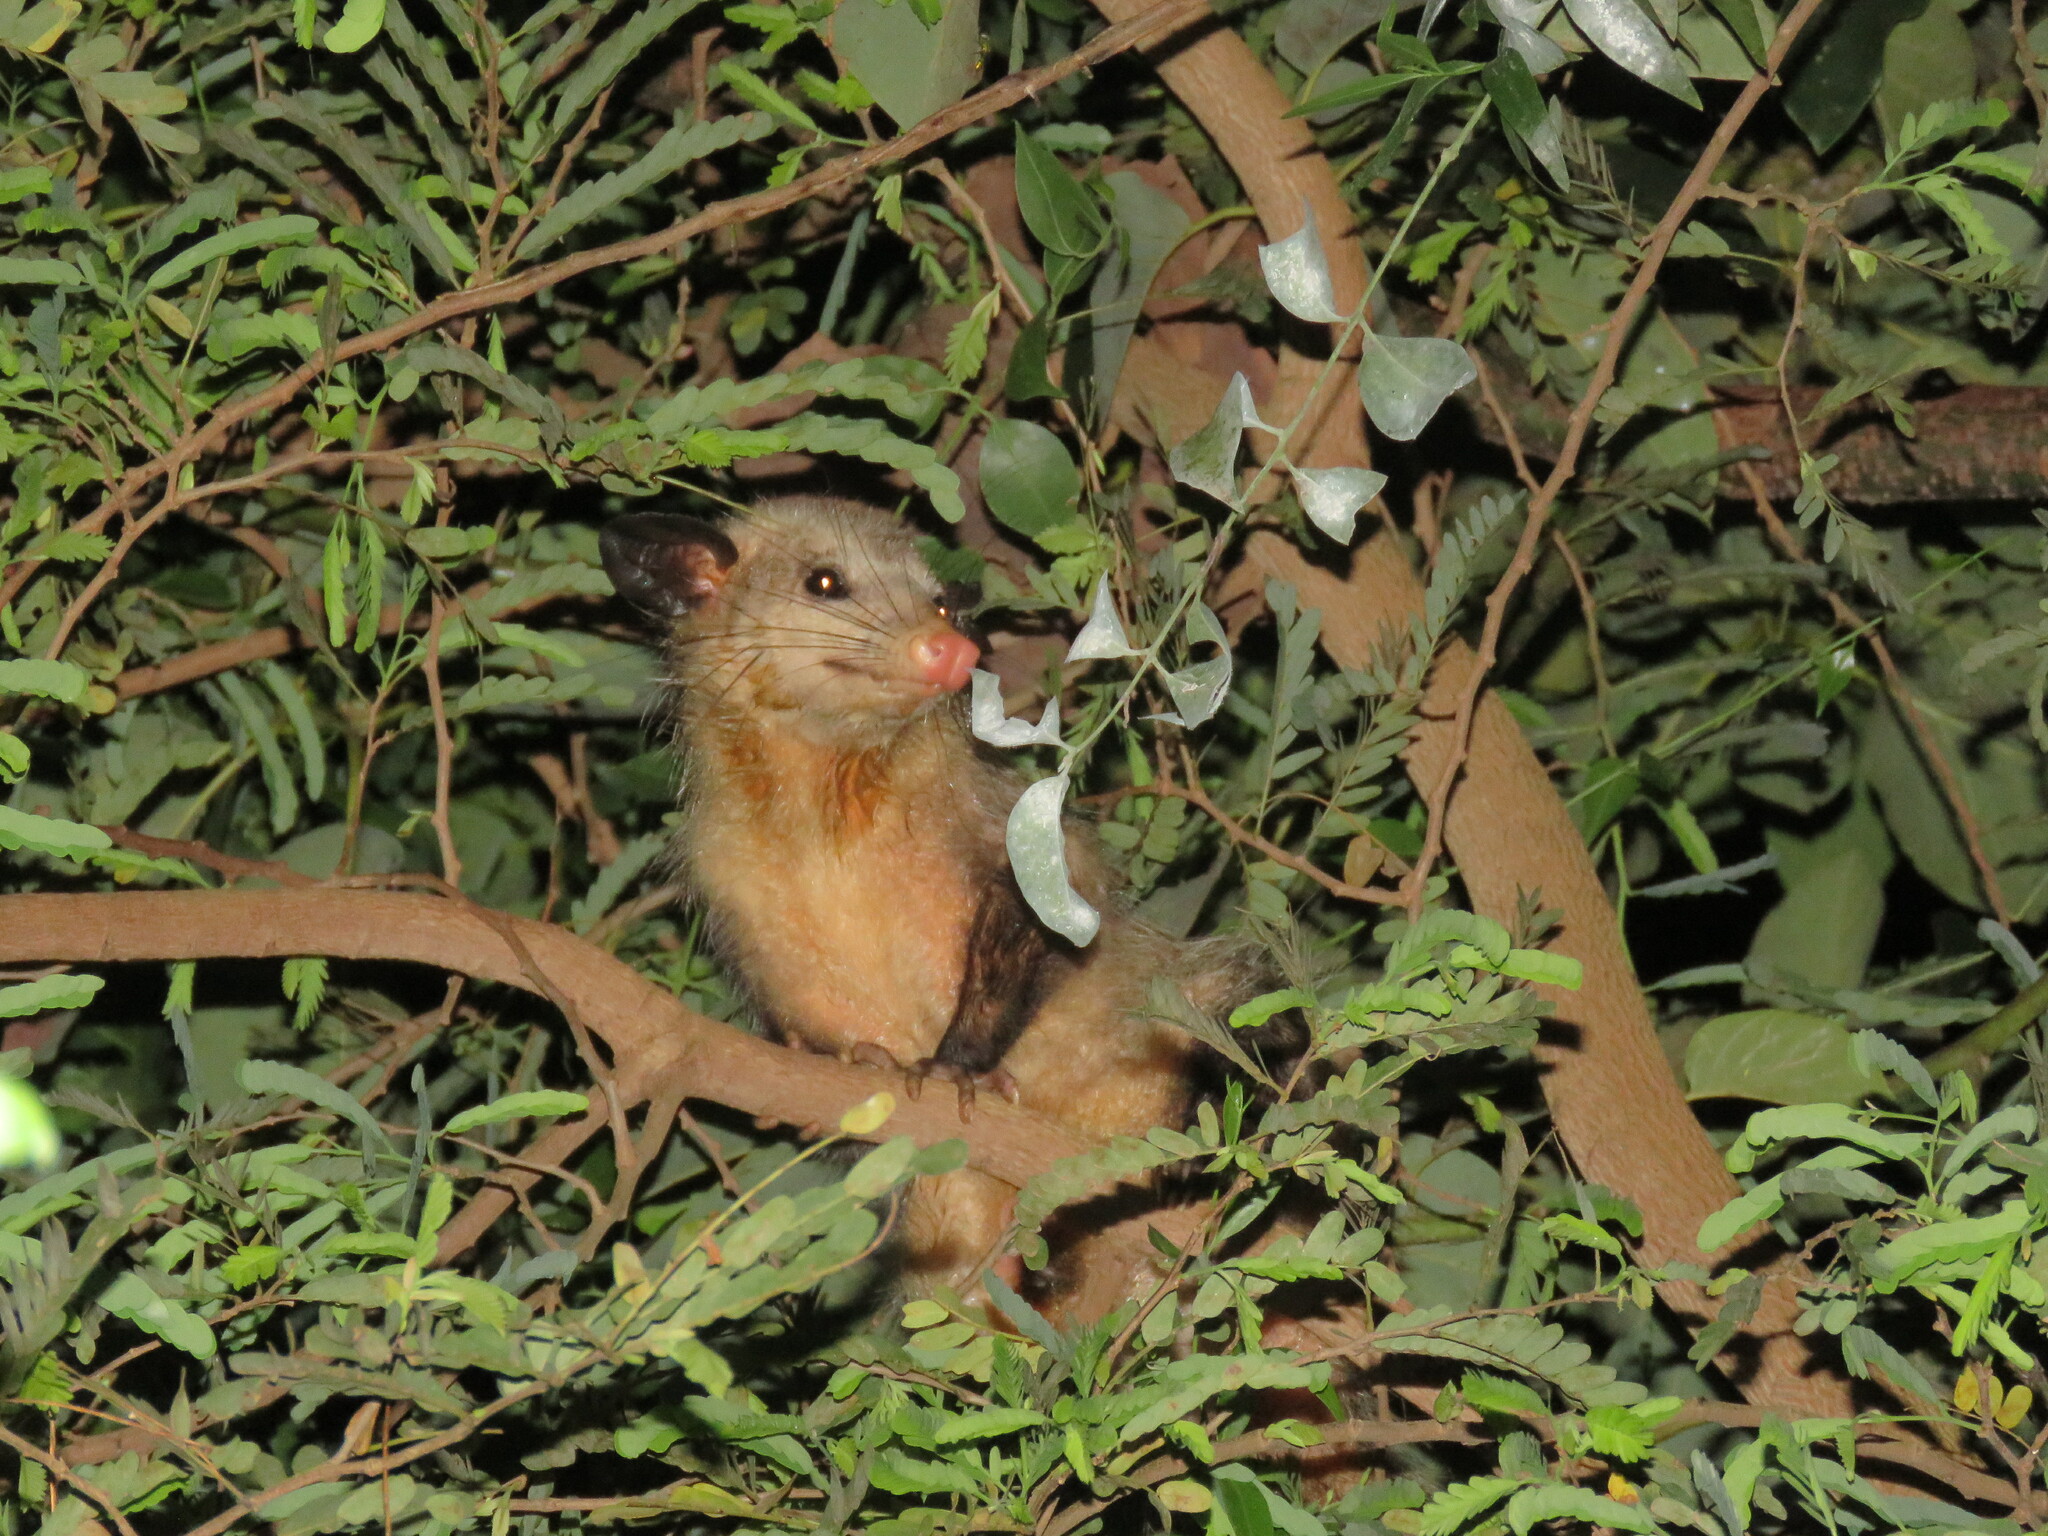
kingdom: Animalia
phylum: Chordata
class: Mammalia
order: Didelphimorphia
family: Didelphidae
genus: Didelphis
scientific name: Didelphis marsupialis
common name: Common opossum
